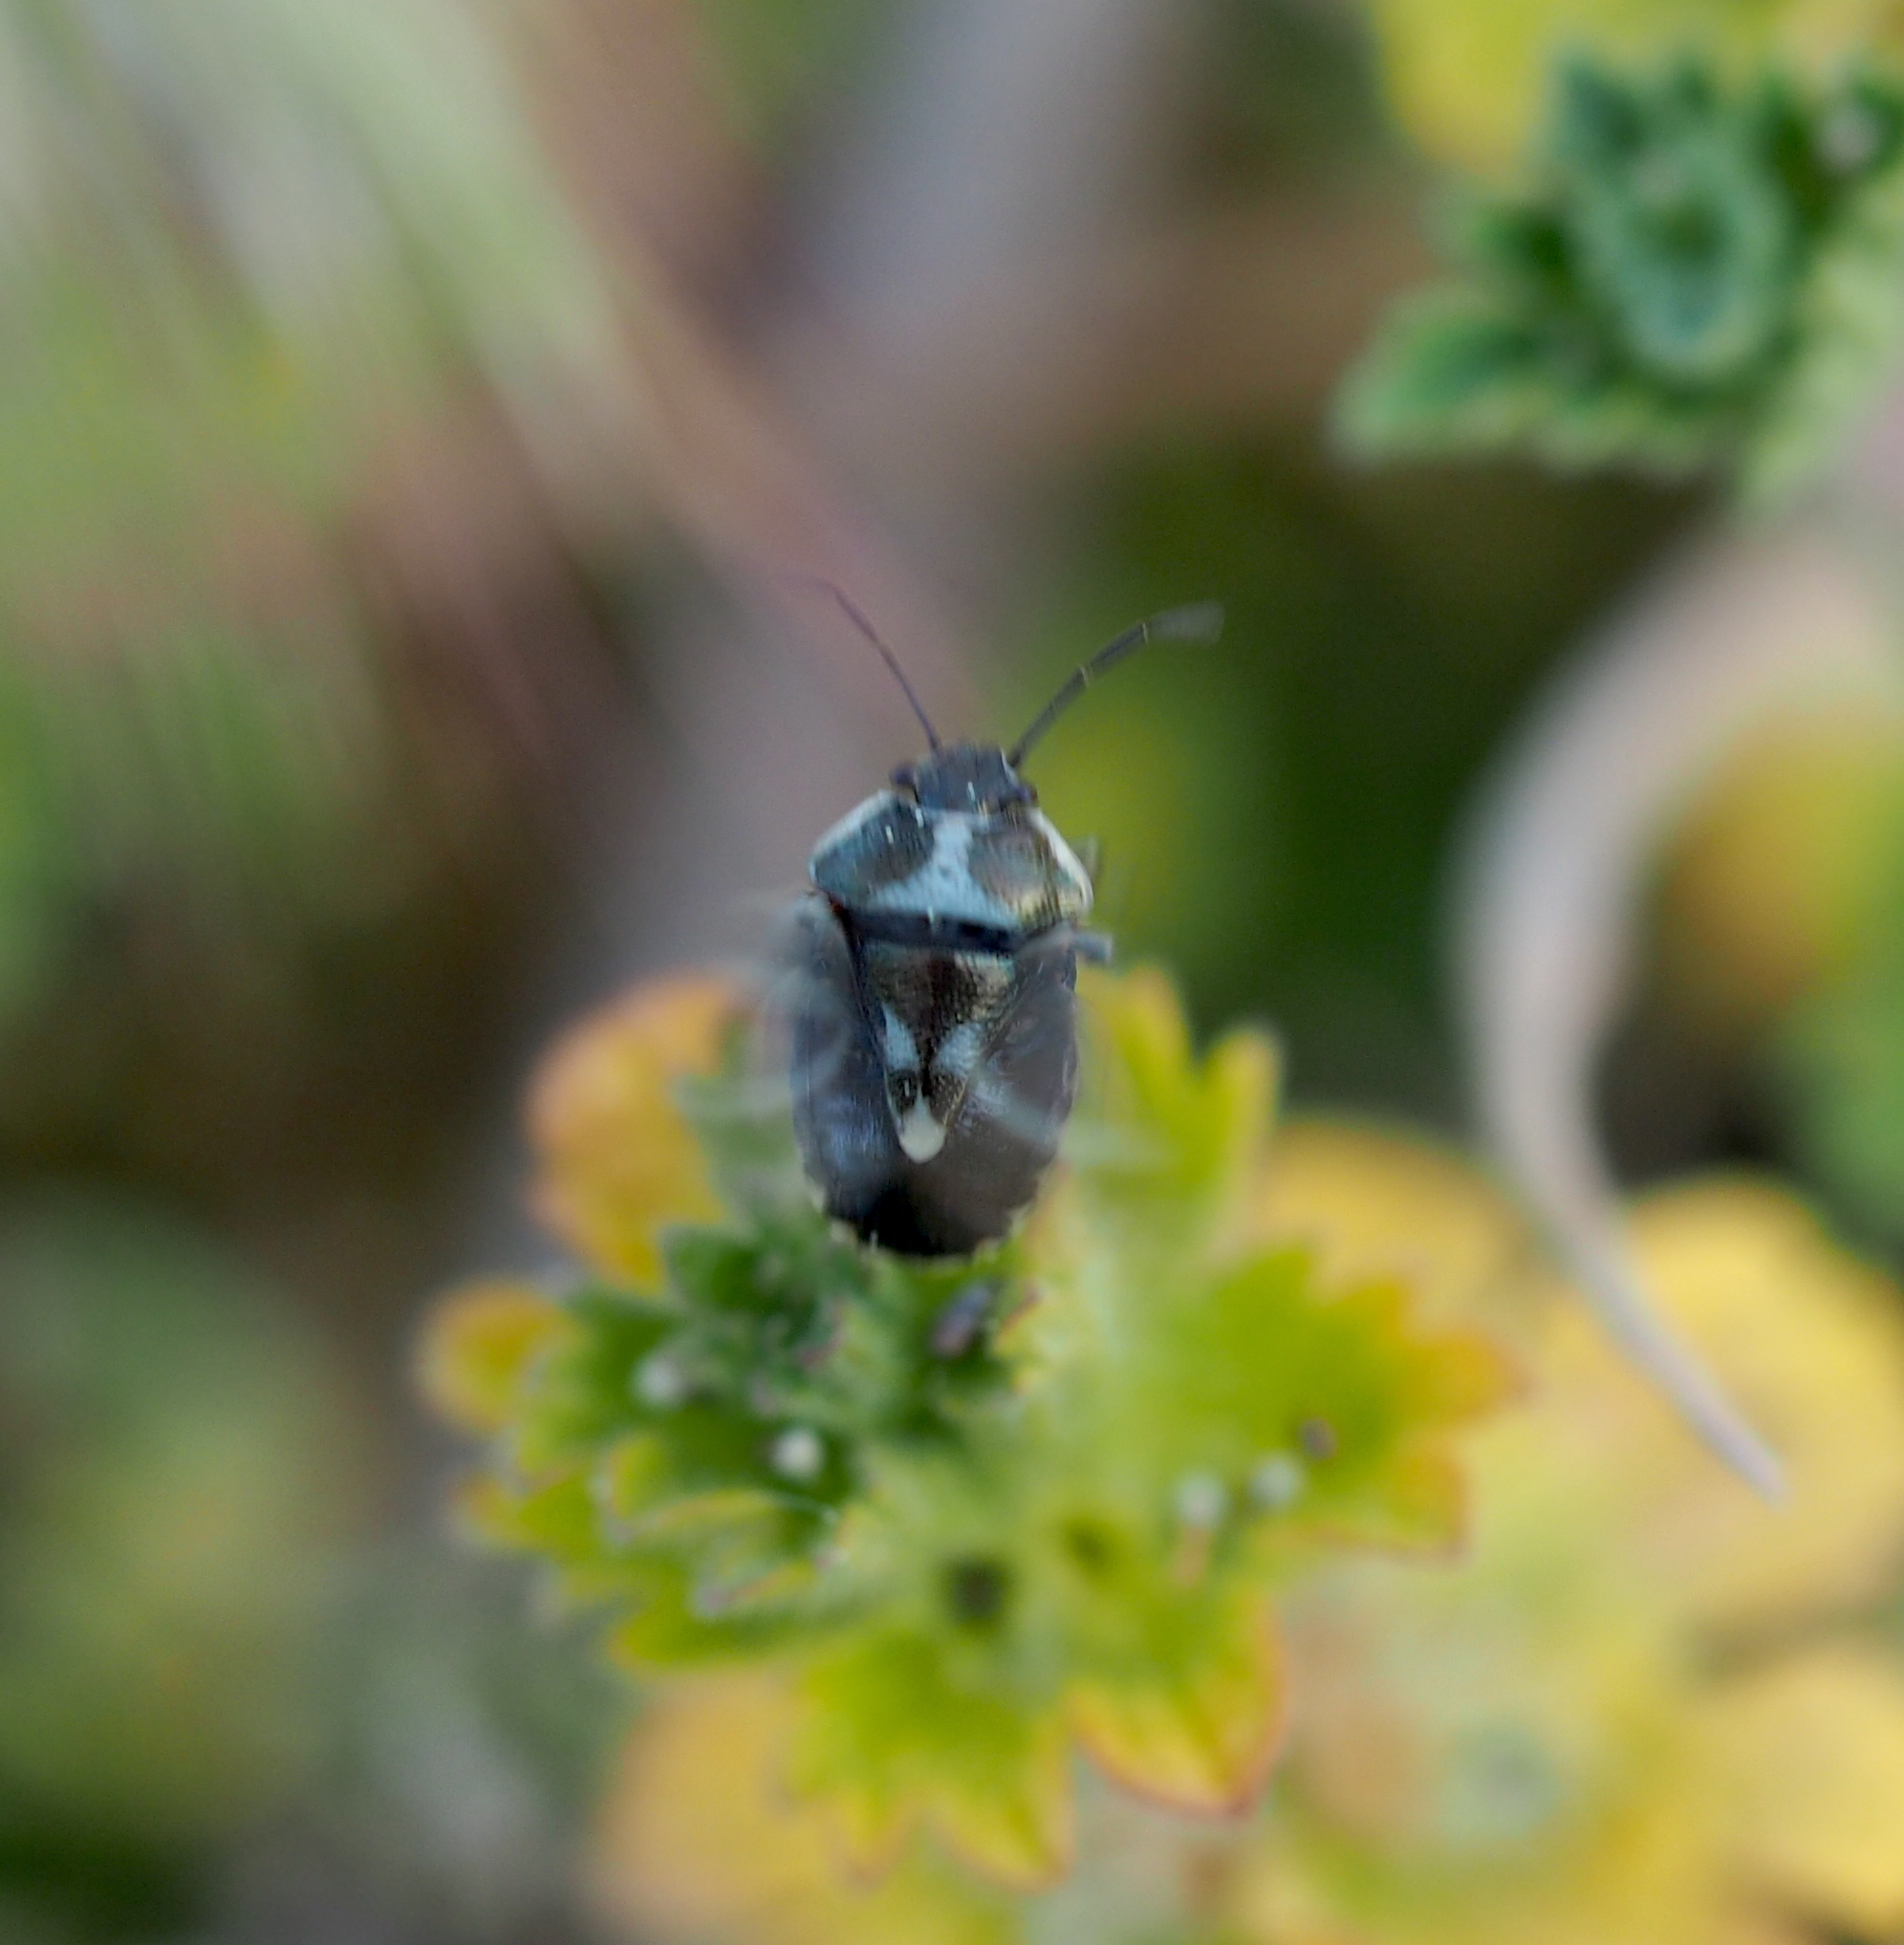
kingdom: Animalia
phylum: Arthropoda
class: Insecta
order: Hemiptera
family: Pentatomidae
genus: Eurydema
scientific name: Eurydema oleracea
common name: Cabbage bug
